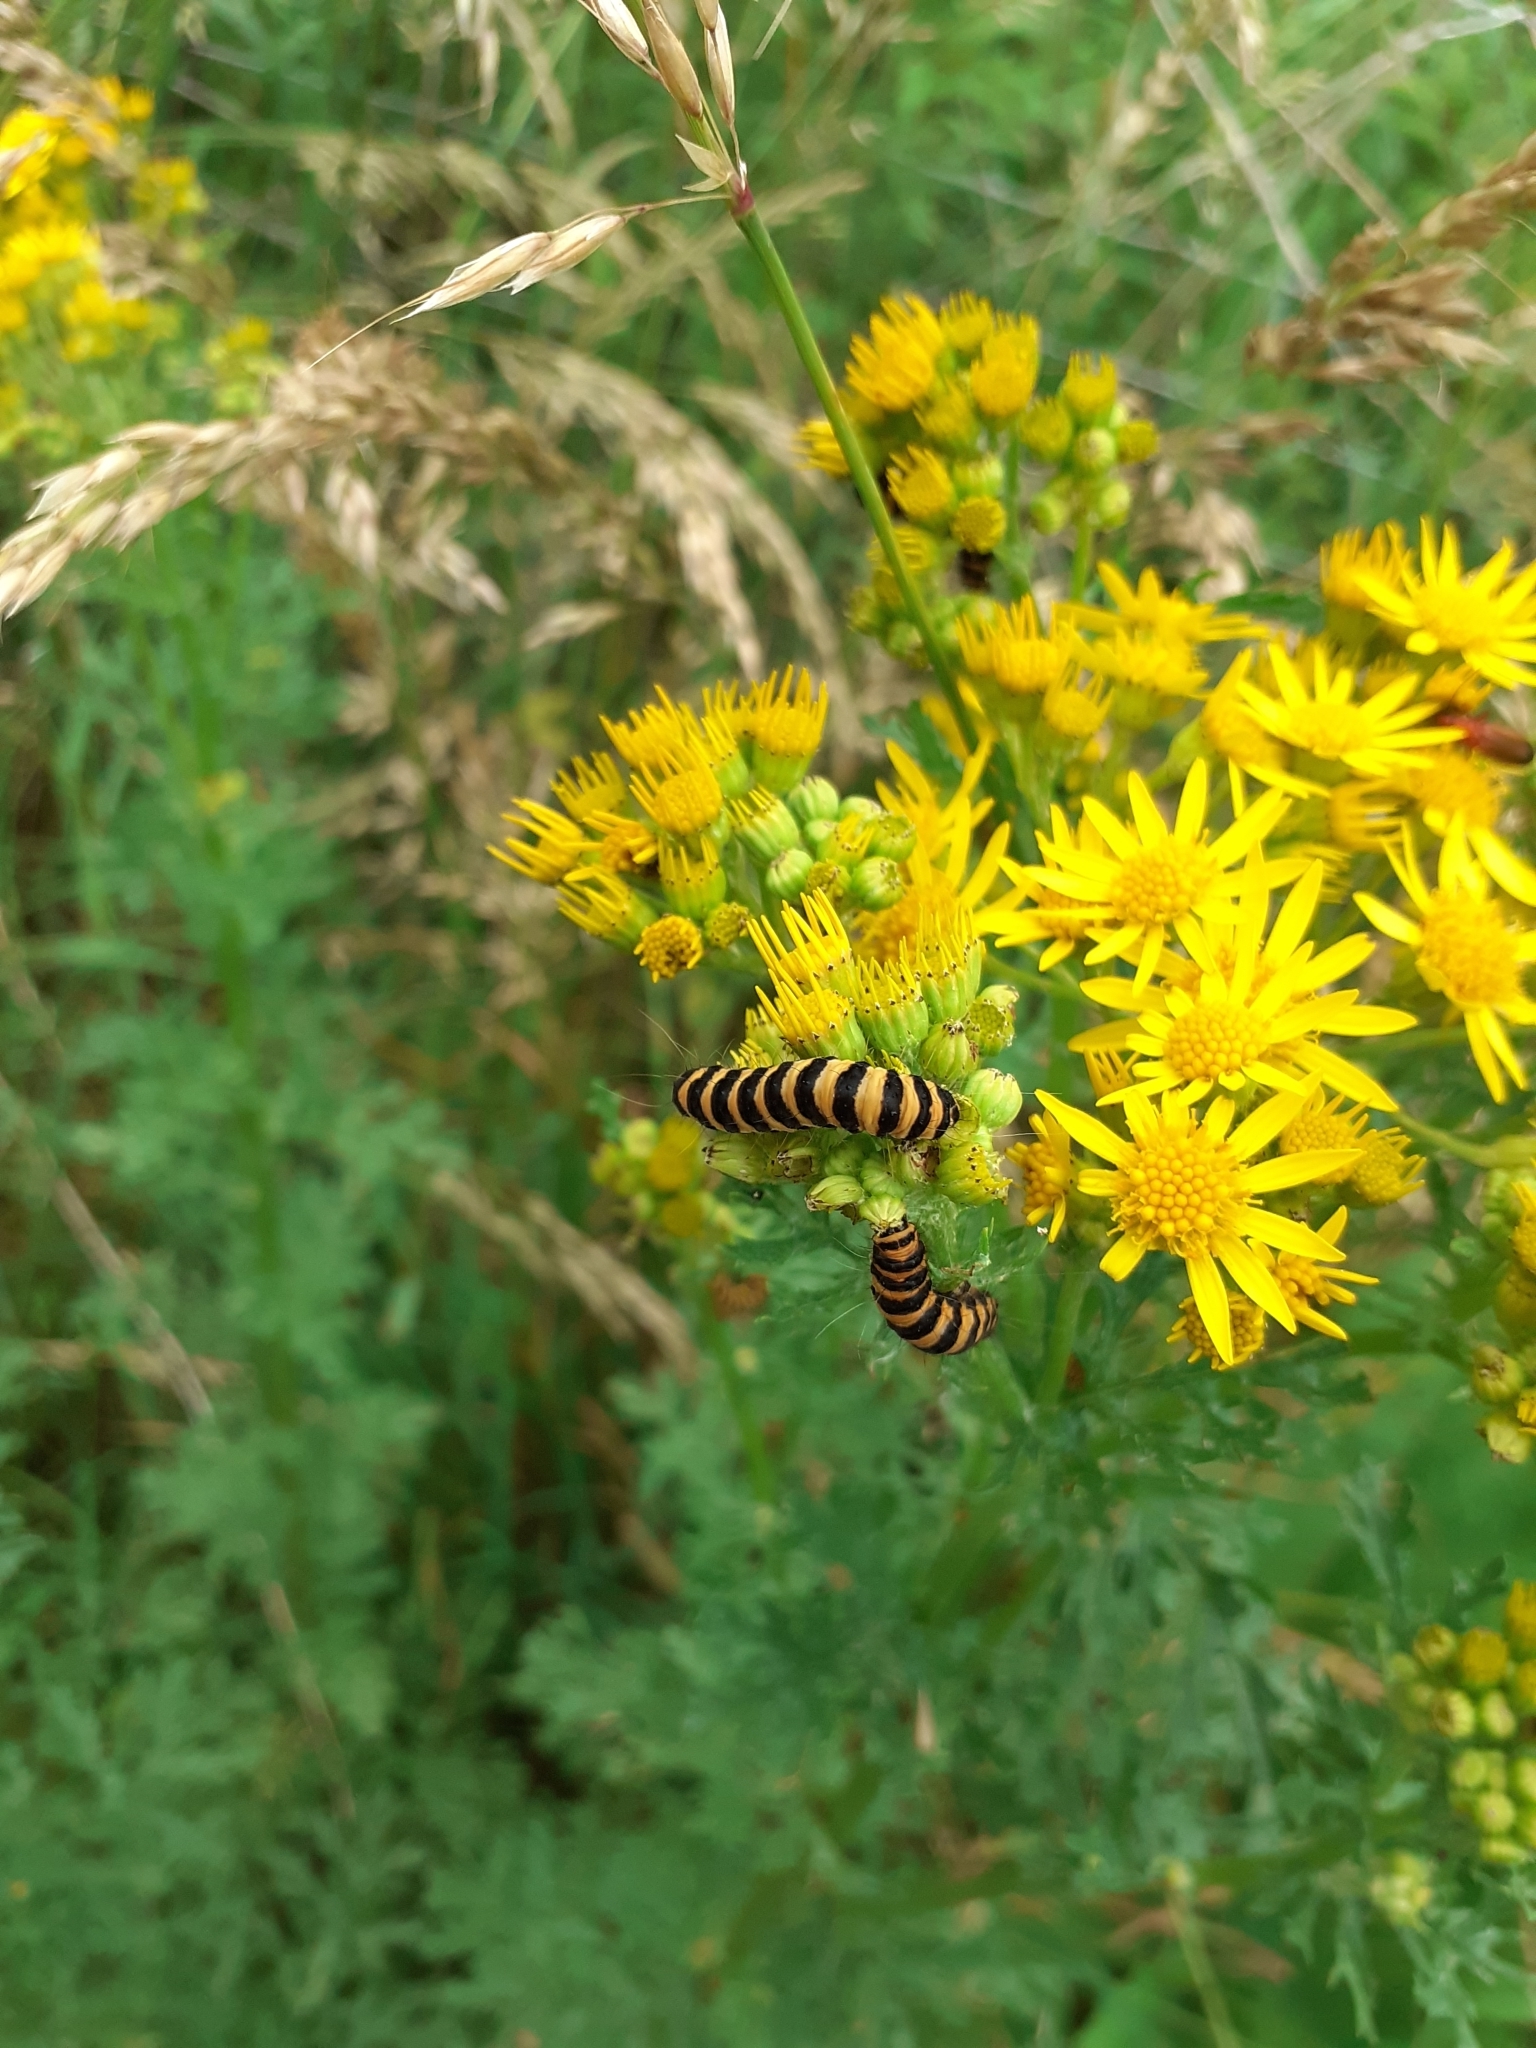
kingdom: Animalia
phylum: Arthropoda
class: Insecta
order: Lepidoptera
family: Erebidae
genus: Tyria
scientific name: Tyria jacobaeae
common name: Cinnabar
